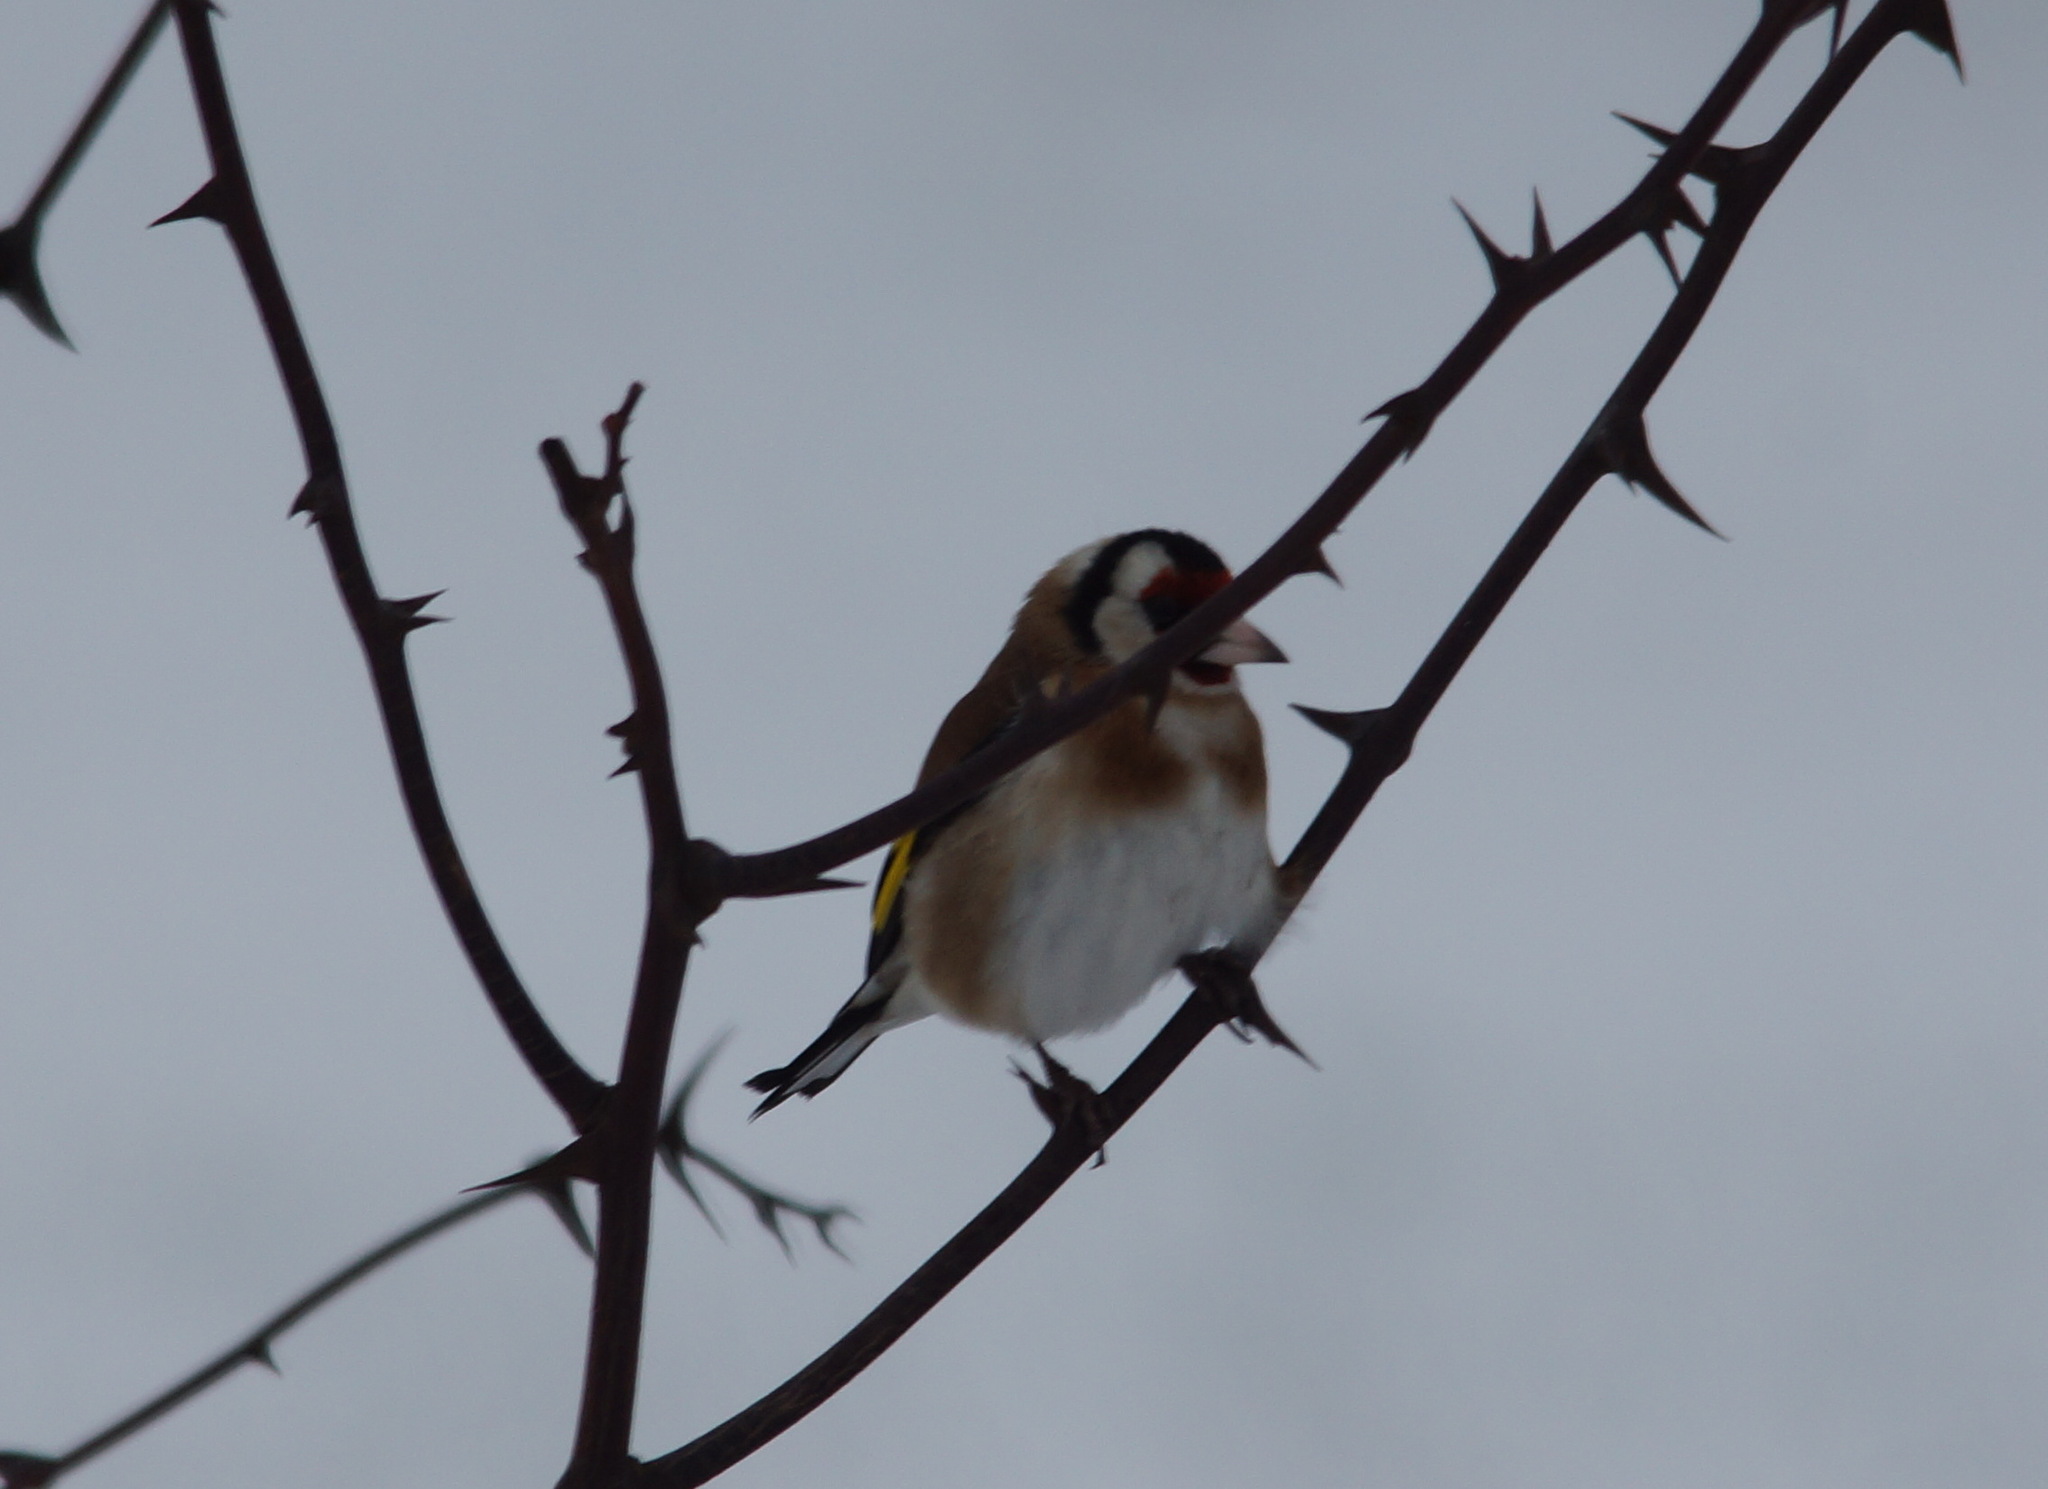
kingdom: Animalia
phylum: Chordata
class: Aves
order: Passeriformes
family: Fringillidae
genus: Carduelis
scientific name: Carduelis carduelis
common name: European goldfinch
